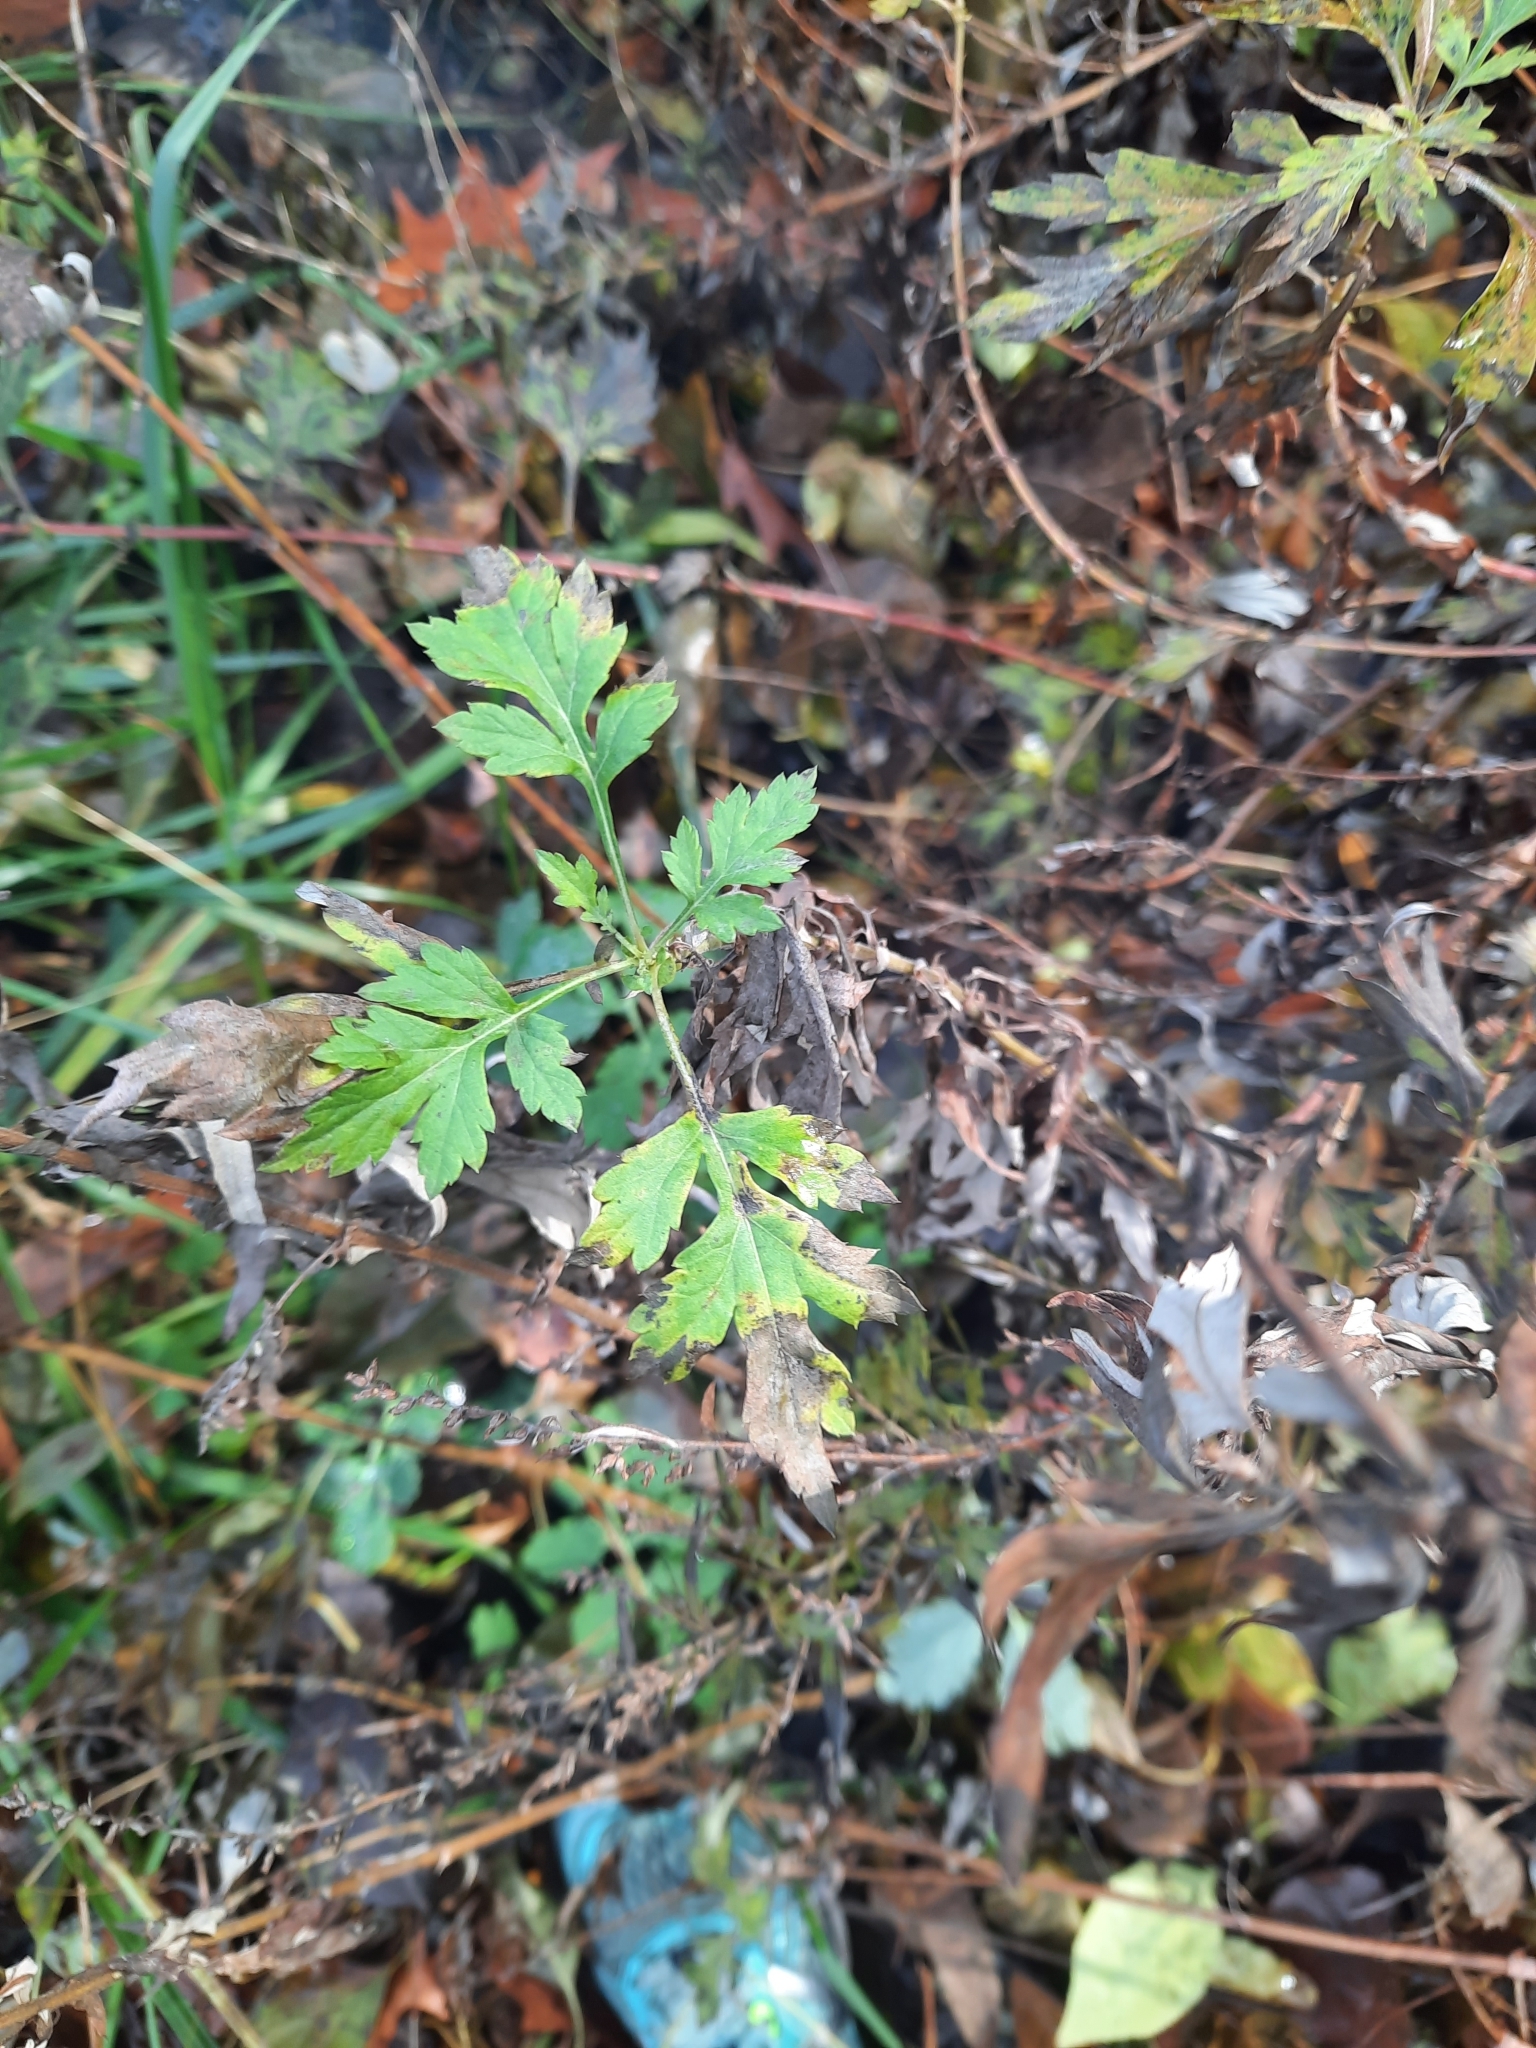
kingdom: Plantae
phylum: Tracheophyta
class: Magnoliopsida
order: Asterales
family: Asteraceae
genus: Artemisia
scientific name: Artemisia vulgaris
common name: Mugwort
